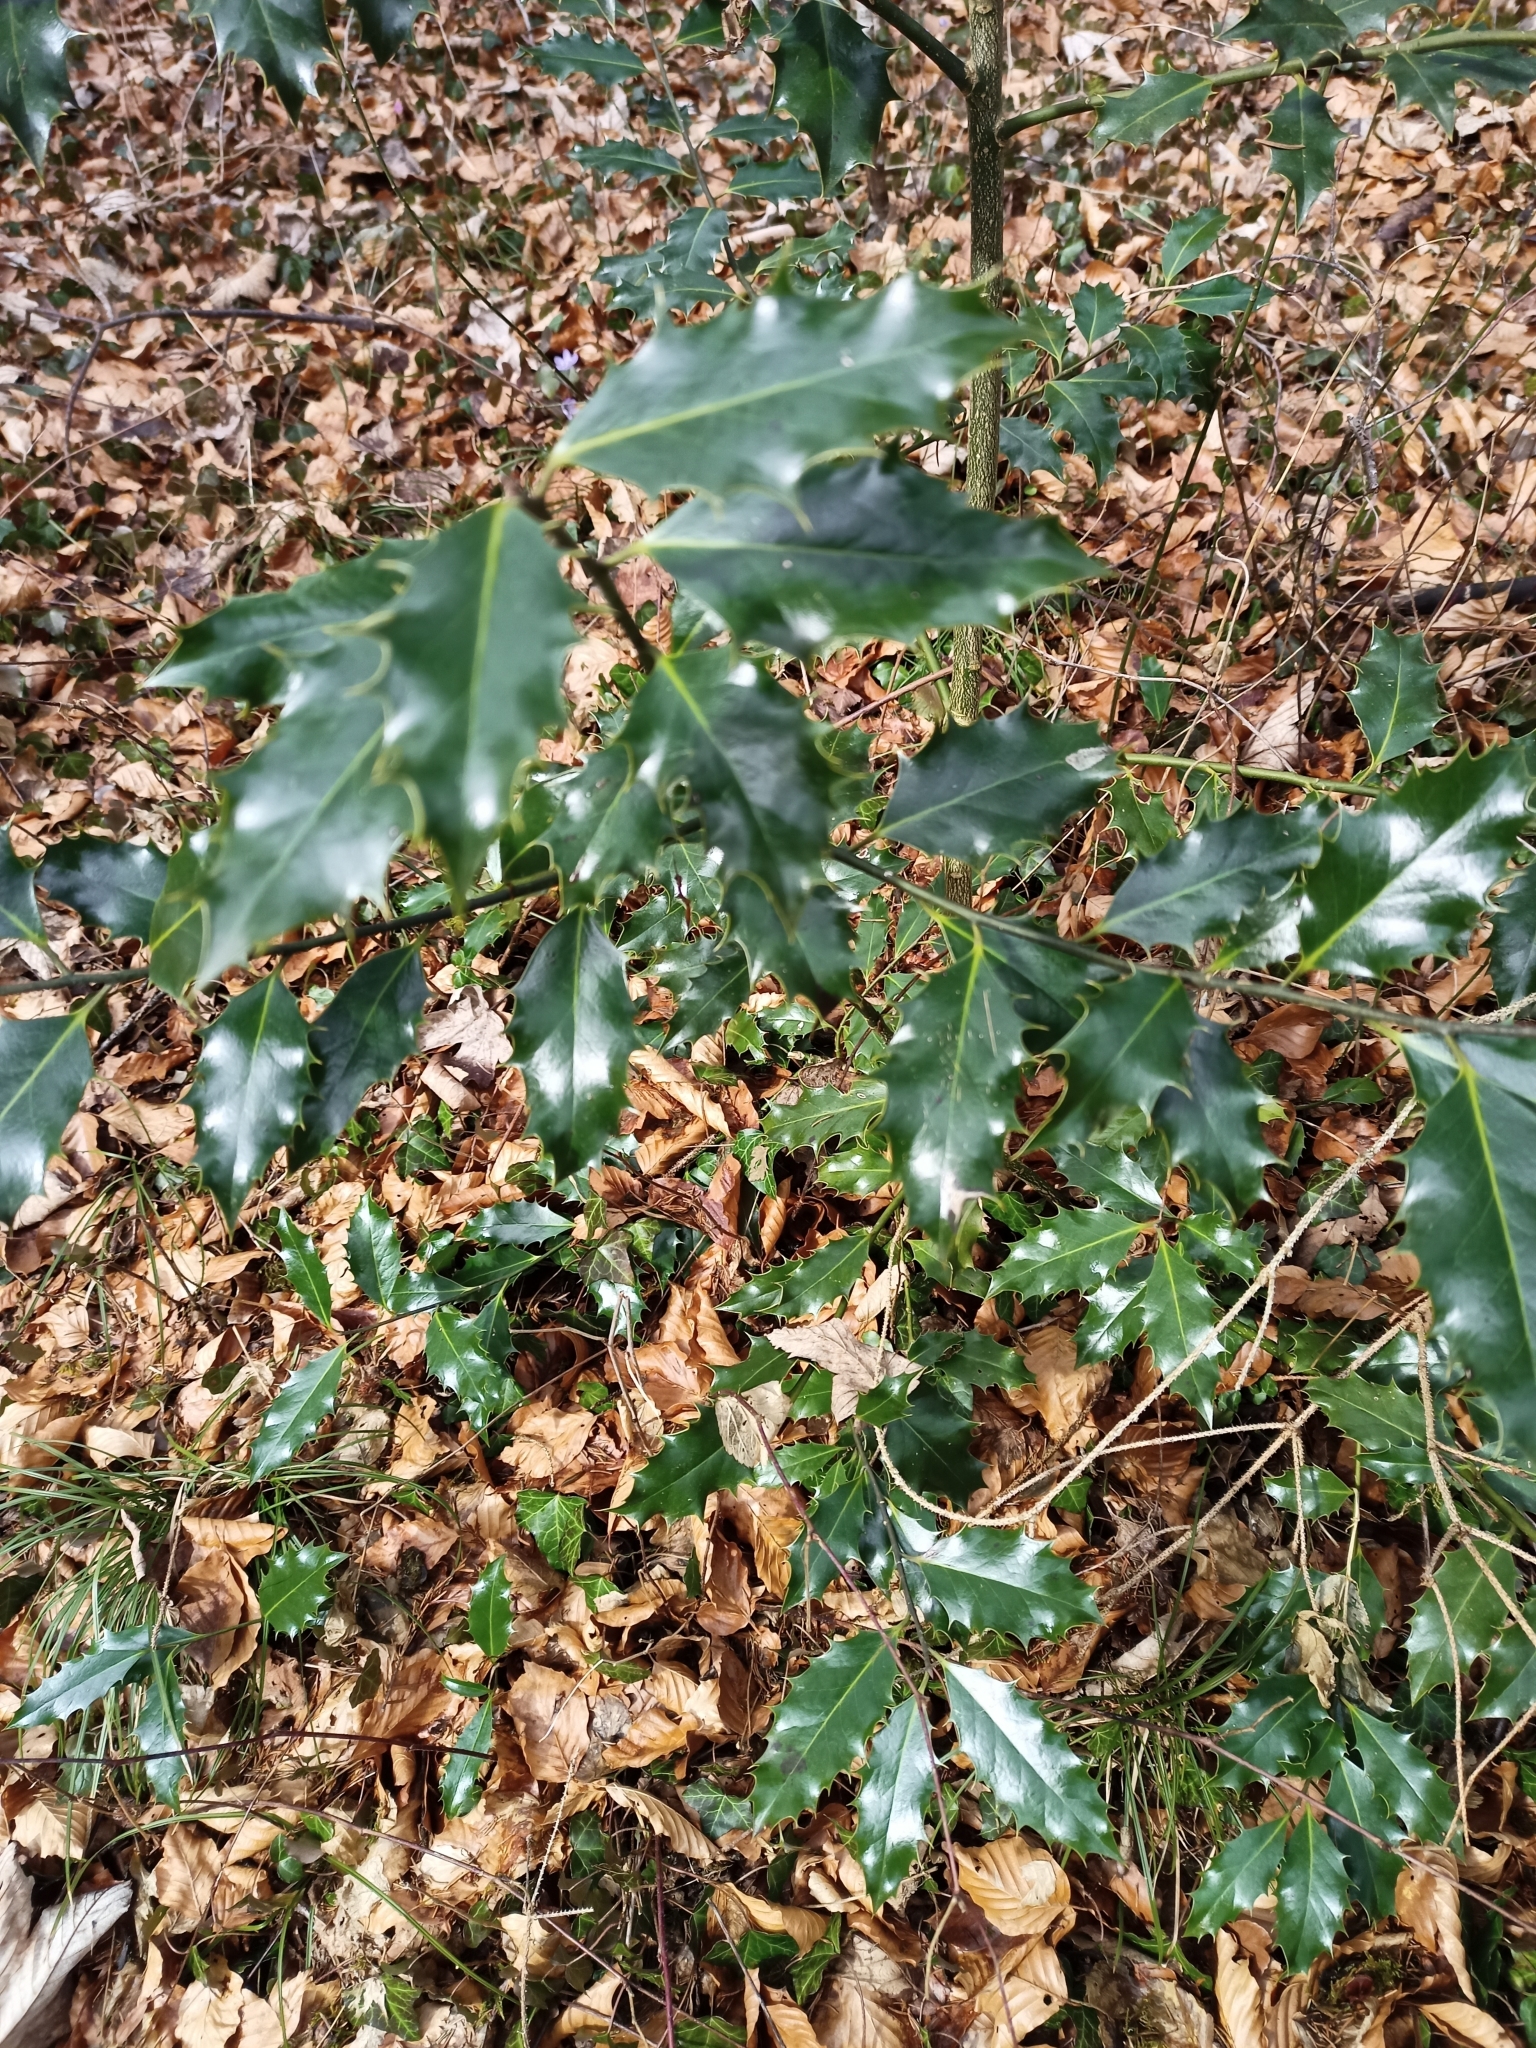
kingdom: Plantae
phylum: Tracheophyta
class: Magnoliopsida
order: Aquifoliales
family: Aquifoliaceae
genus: Ilex
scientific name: Ilex aquifolium
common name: English holly
